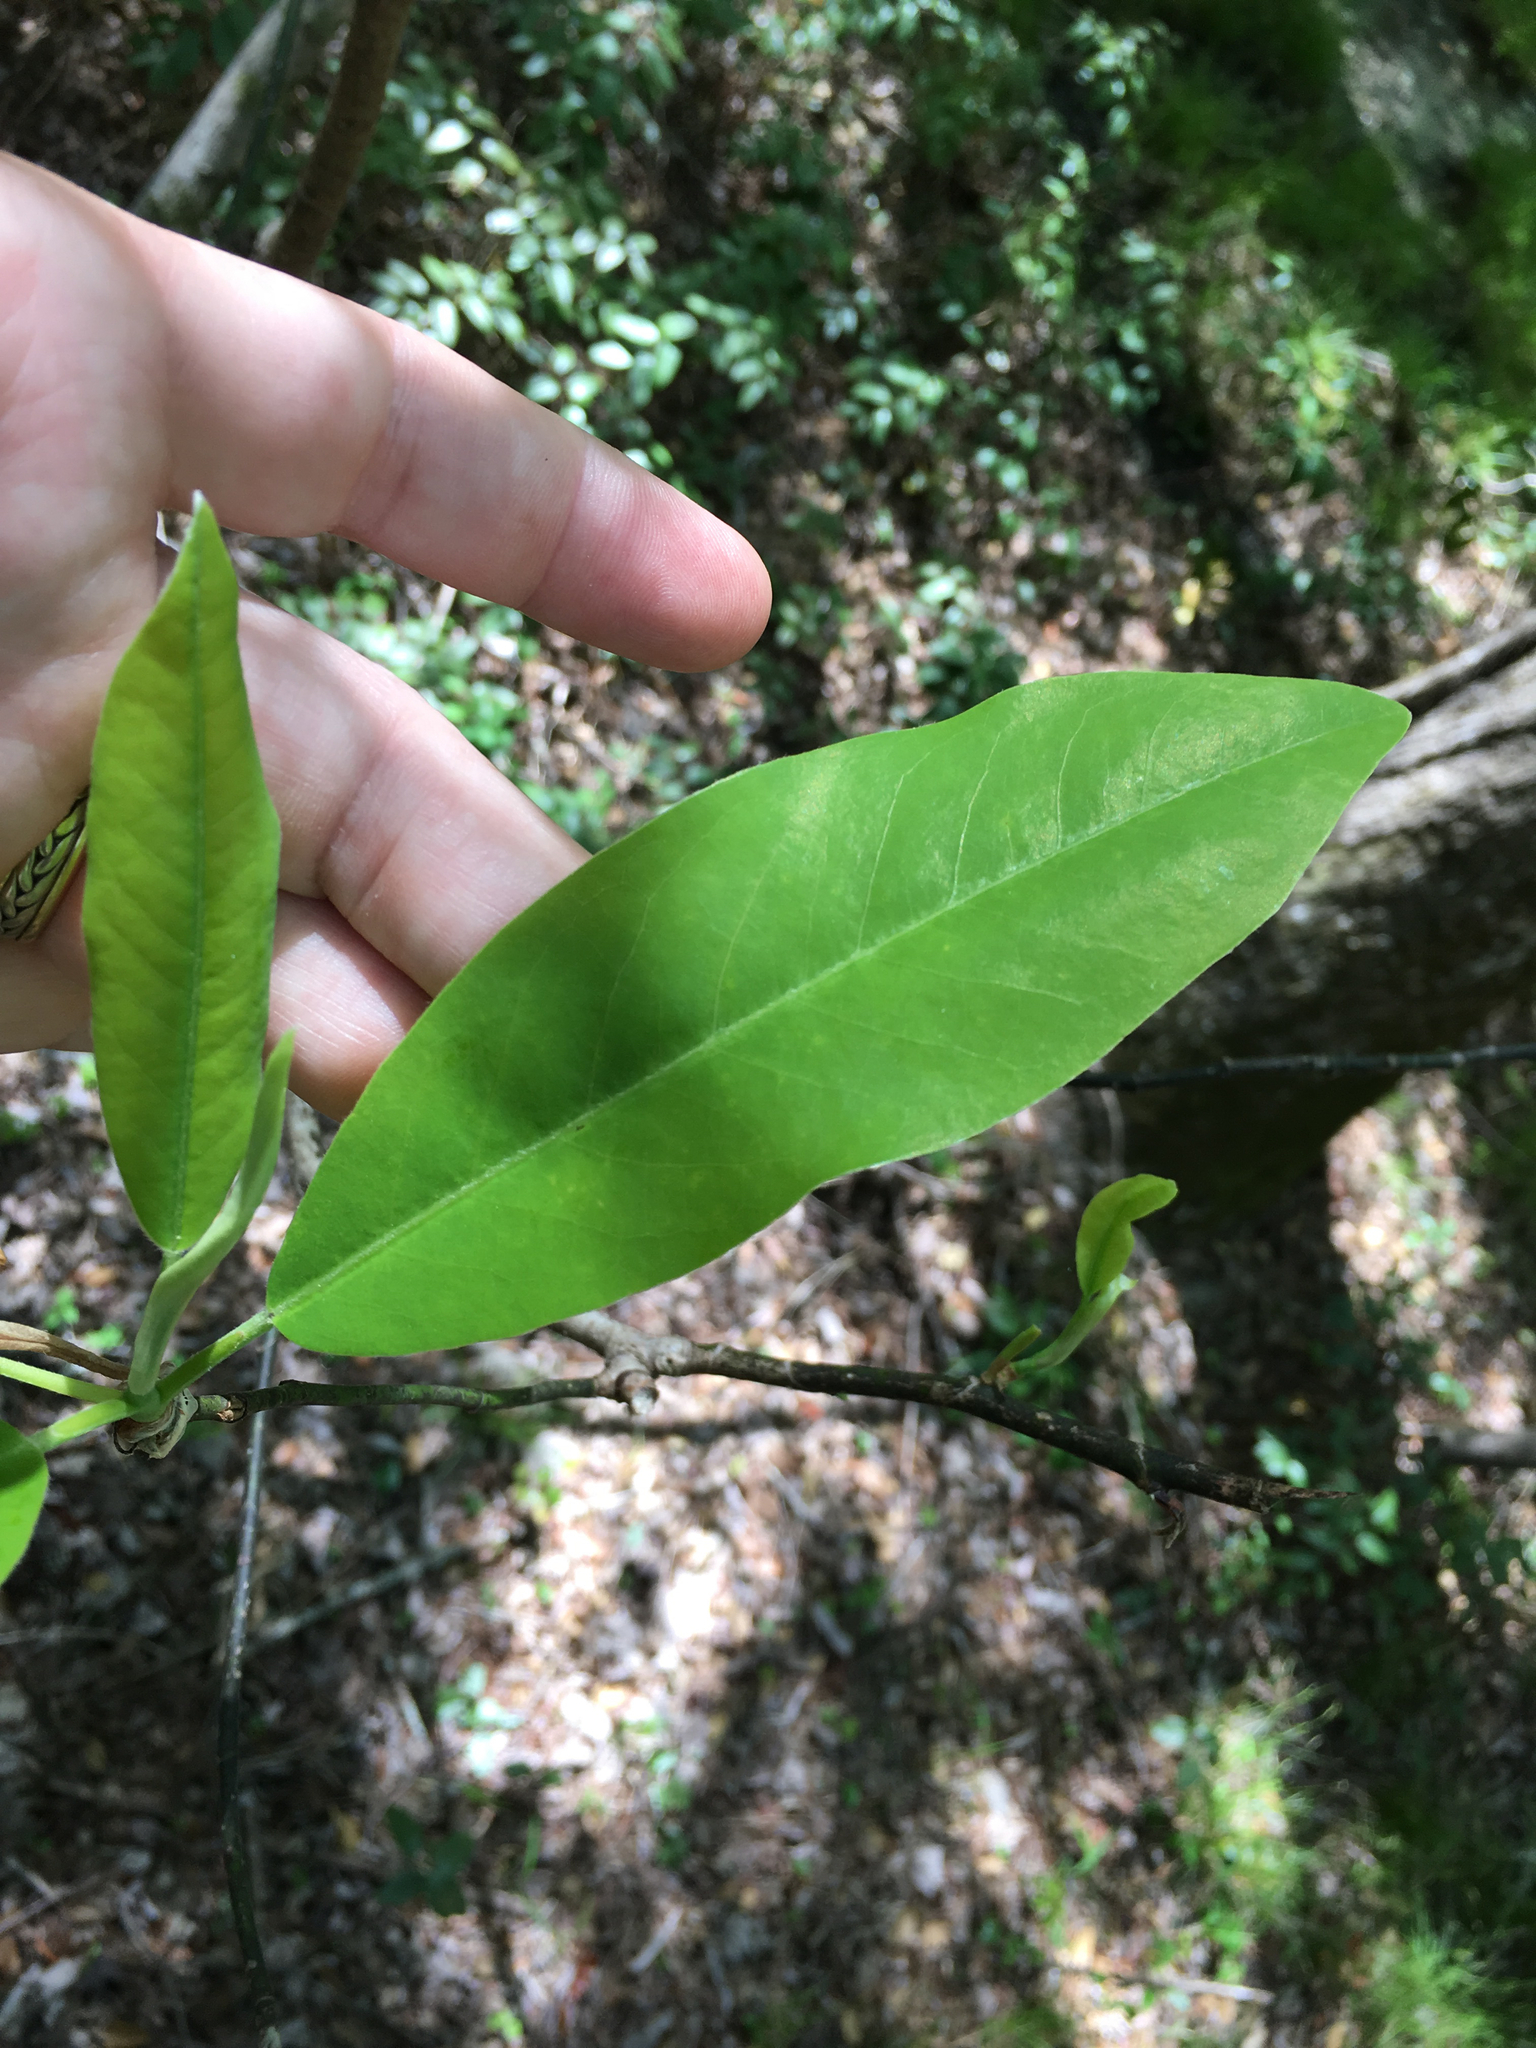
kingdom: Plantae
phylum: Tracheophyta
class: Magnoliopsida
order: Magnoliales
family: Magnoliaceae
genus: Magnolia
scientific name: Magnolia virginiana
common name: Swamp bay
